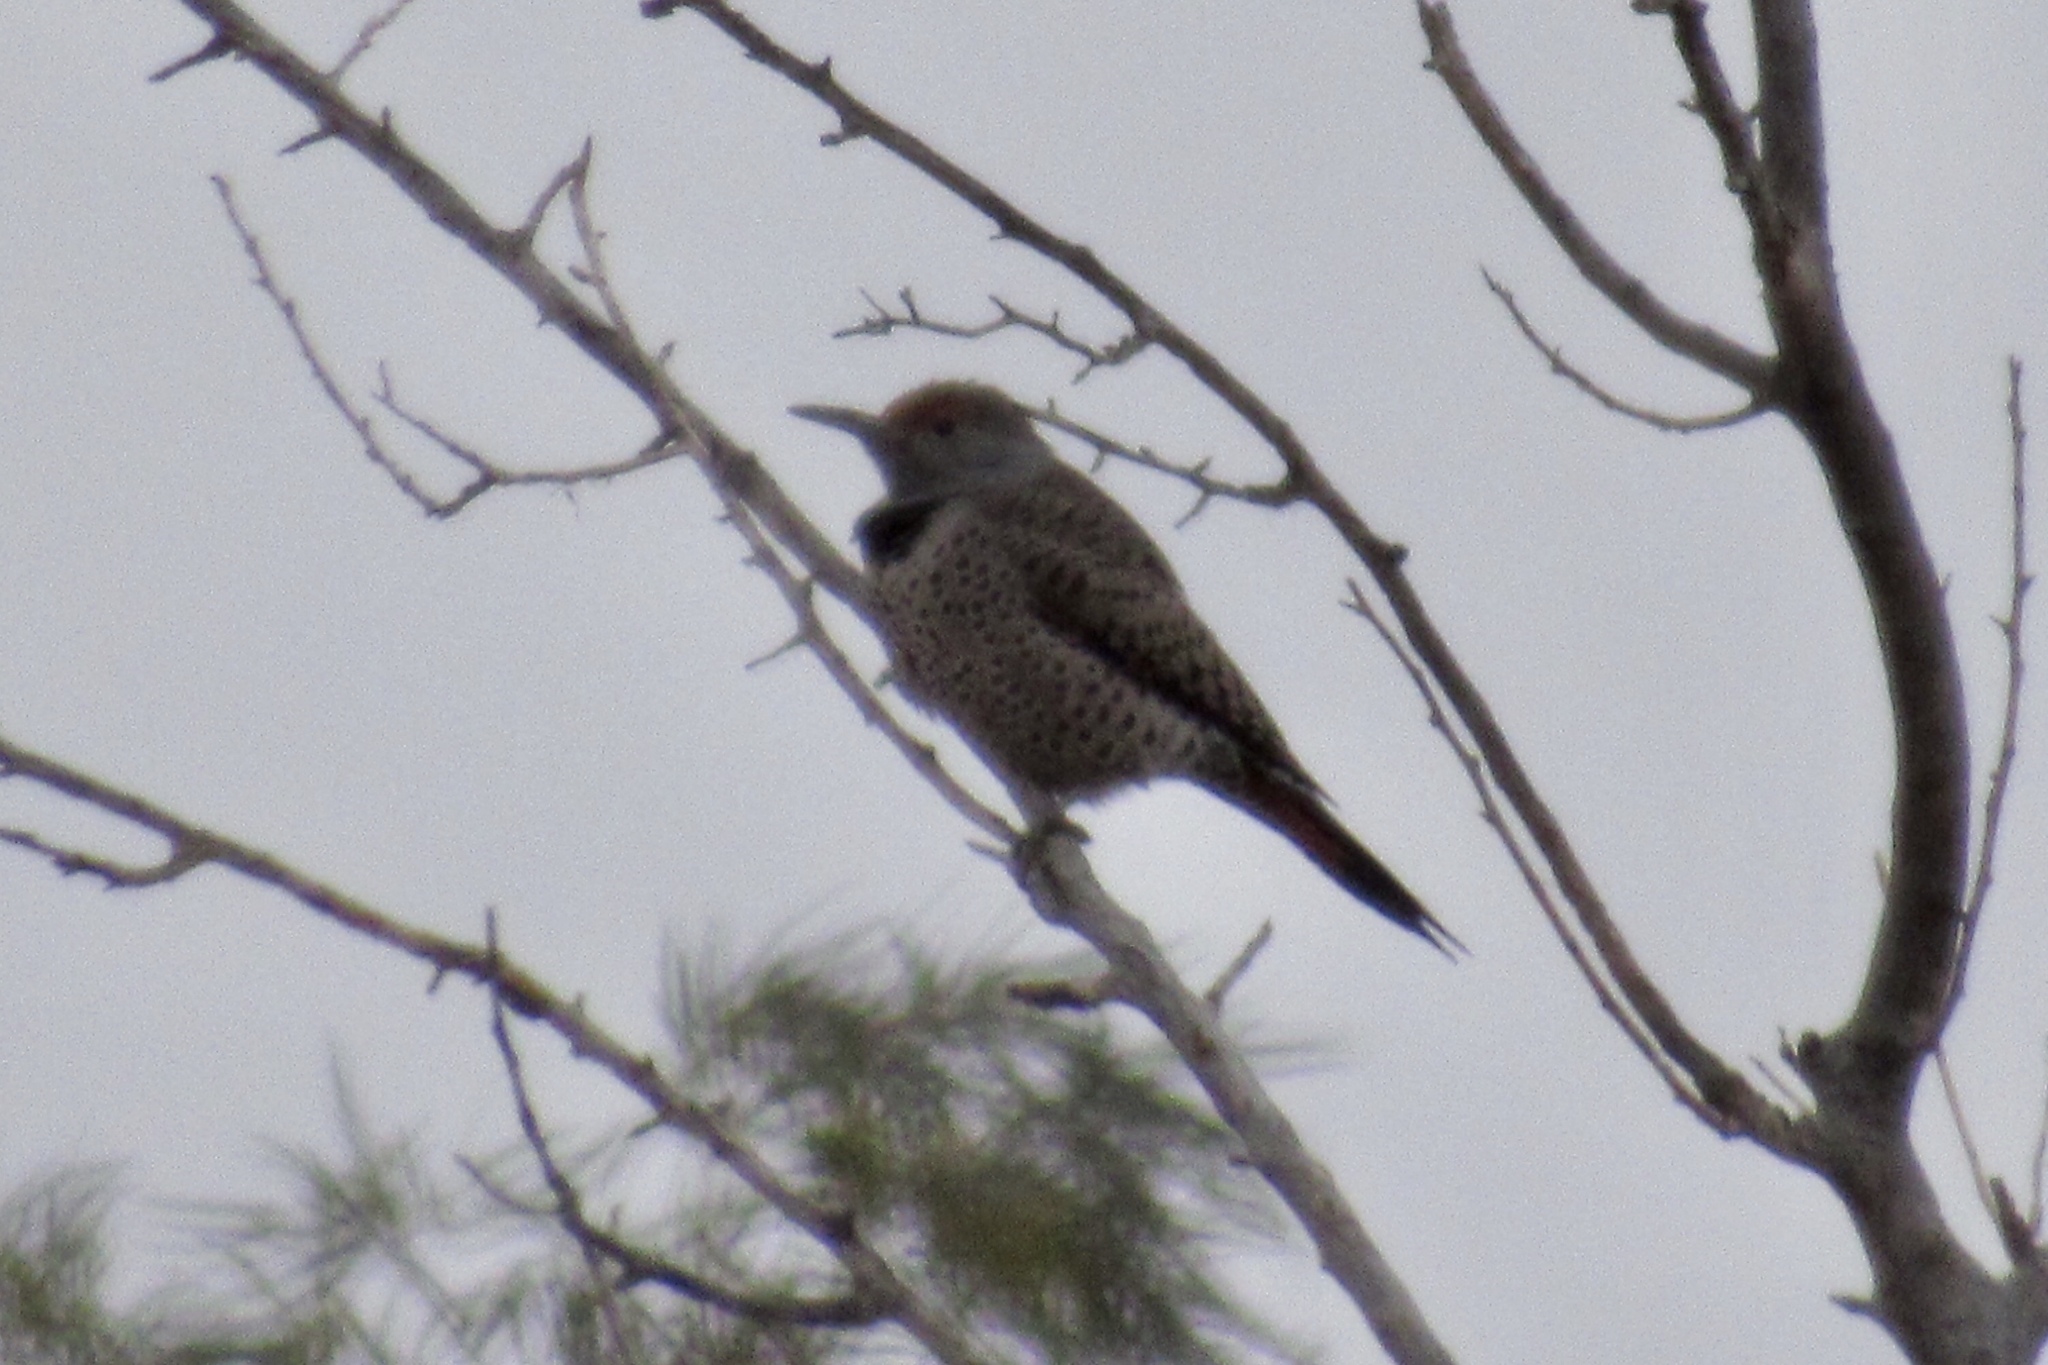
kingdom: Animalia
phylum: Chordata
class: Aves
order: Piciformes
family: Picidae
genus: Colaptes
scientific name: Colaptes auratus
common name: Northern flicker
